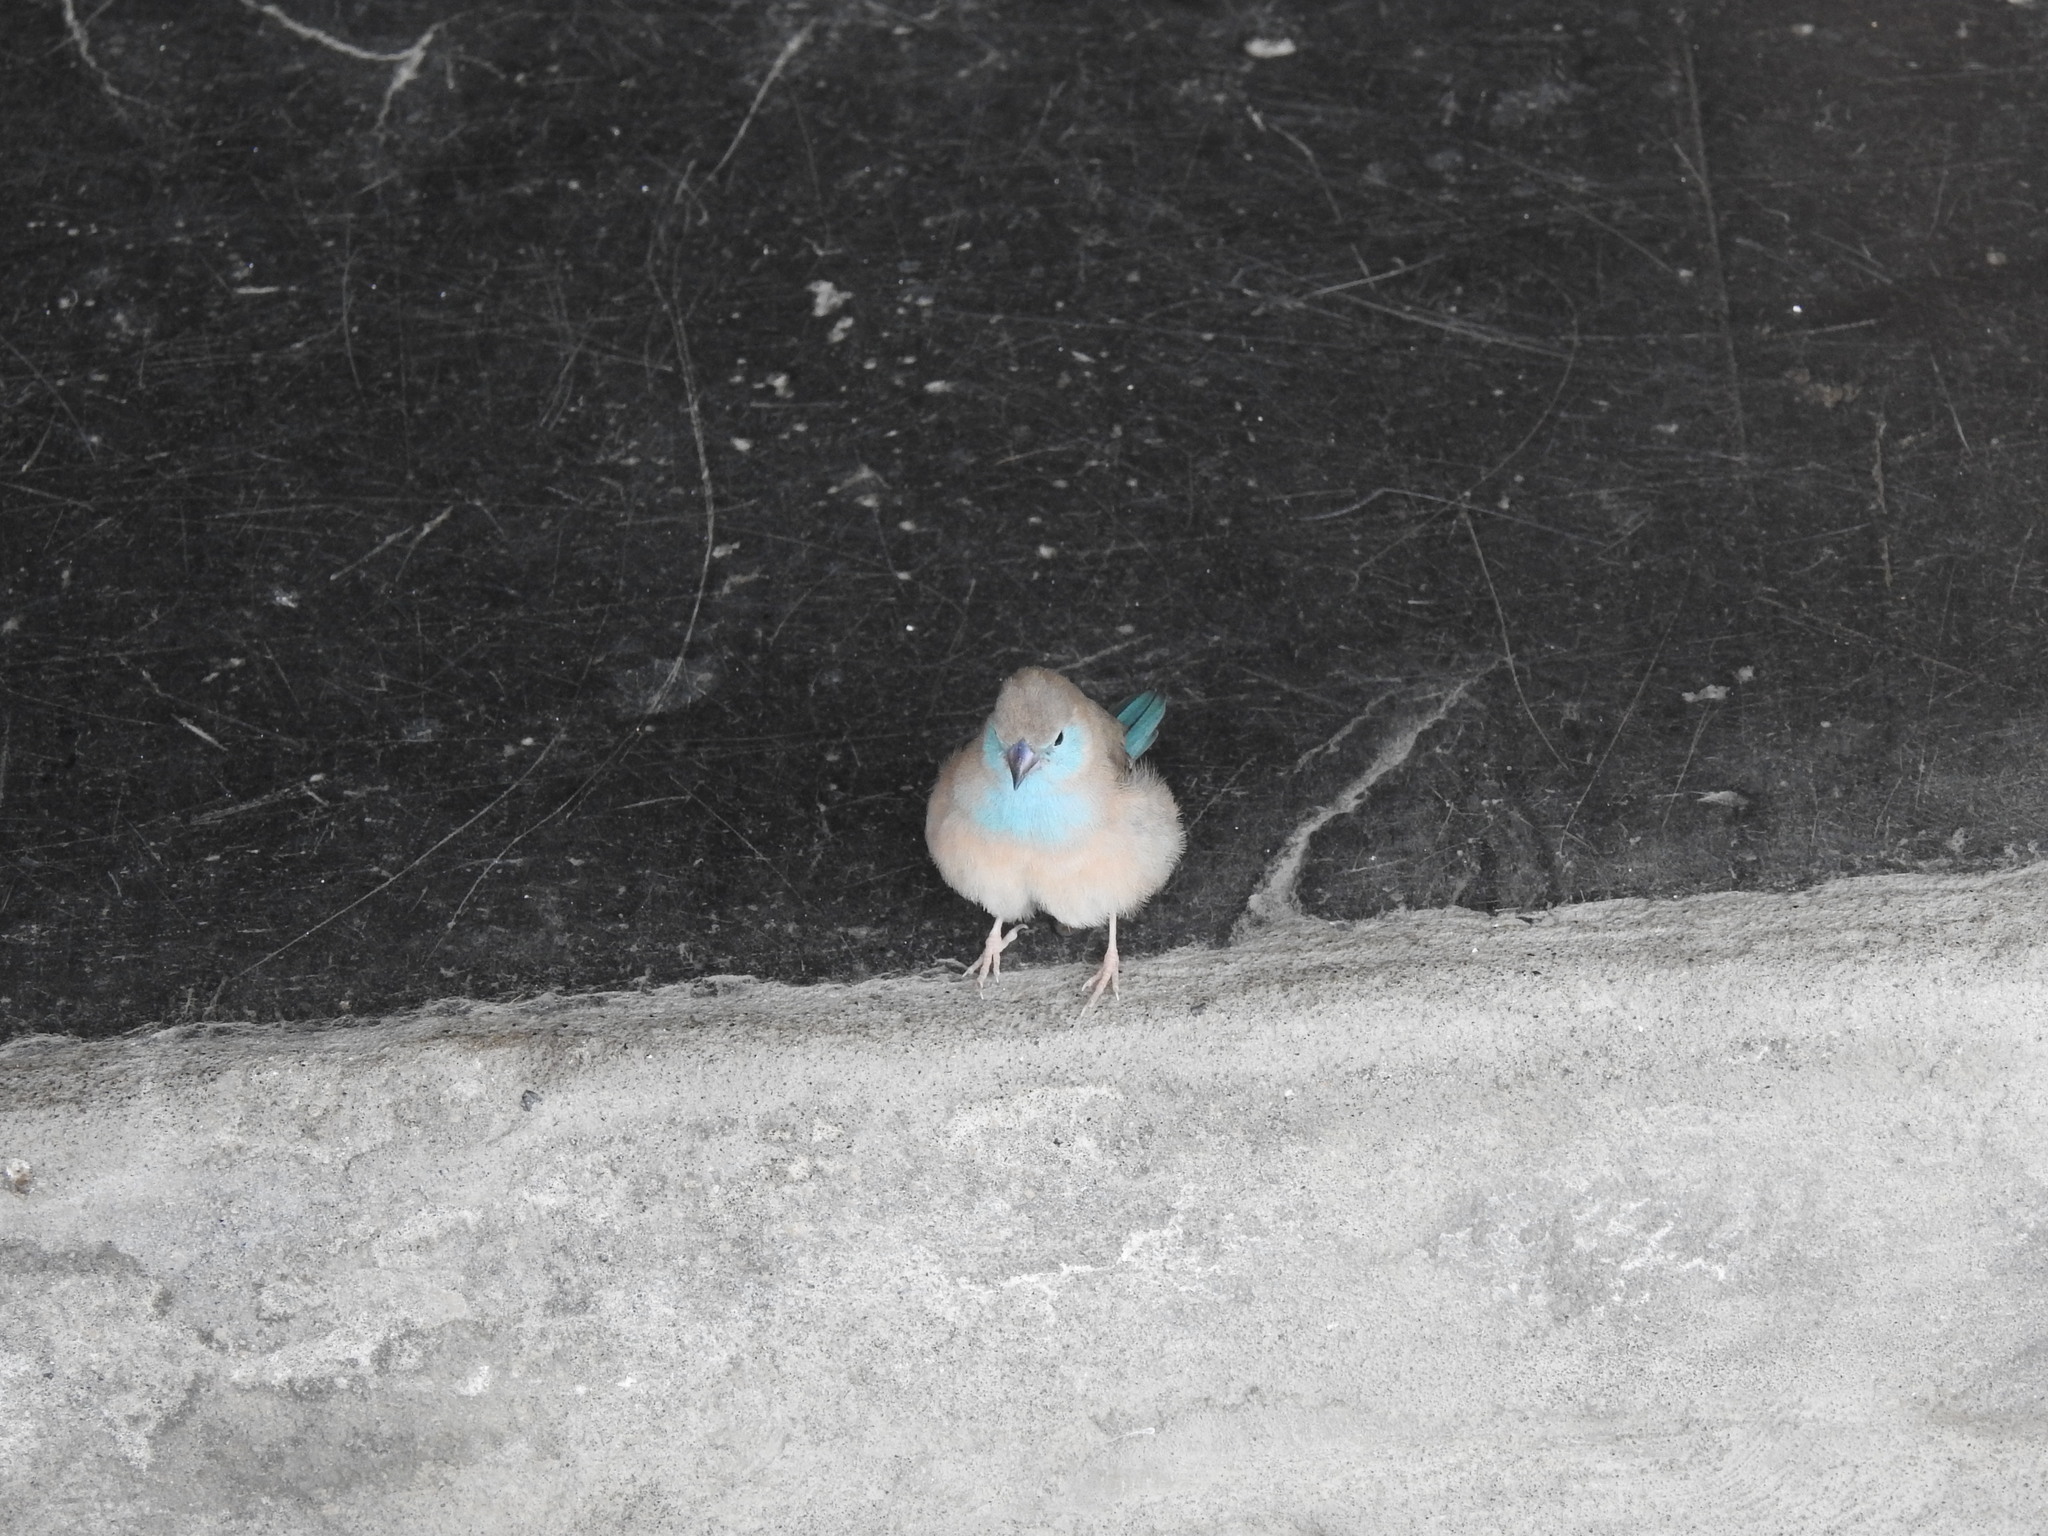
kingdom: Animalia
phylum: Chordata
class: Aves
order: Passeriformes
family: Estrildidae
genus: Uraeginthus
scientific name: Uraeginthus angolensis
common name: Blue waxbill
